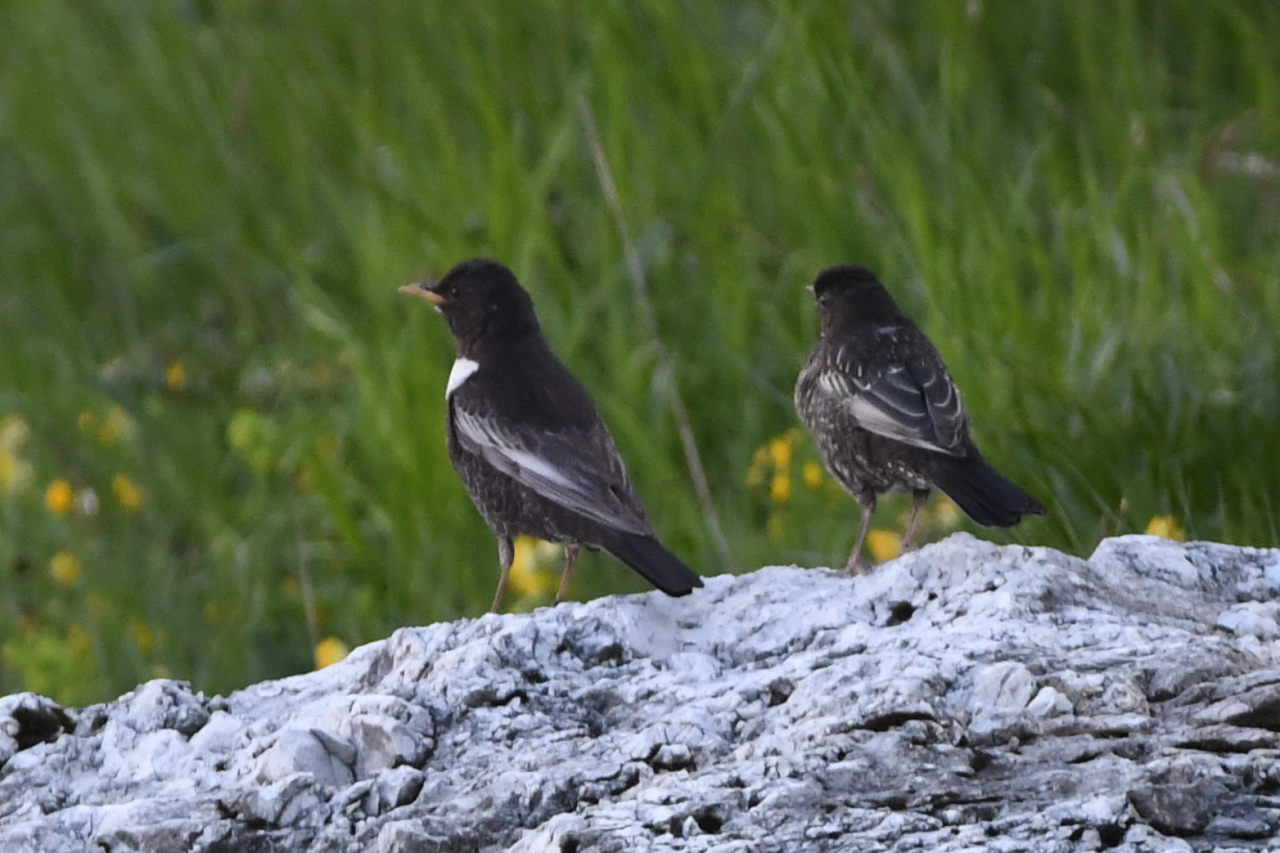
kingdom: Animalia
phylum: Chordata
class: Aves
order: Passeriformes
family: Turdidae
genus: Turdus
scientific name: Turdus torquatus
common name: Ring ouzel
